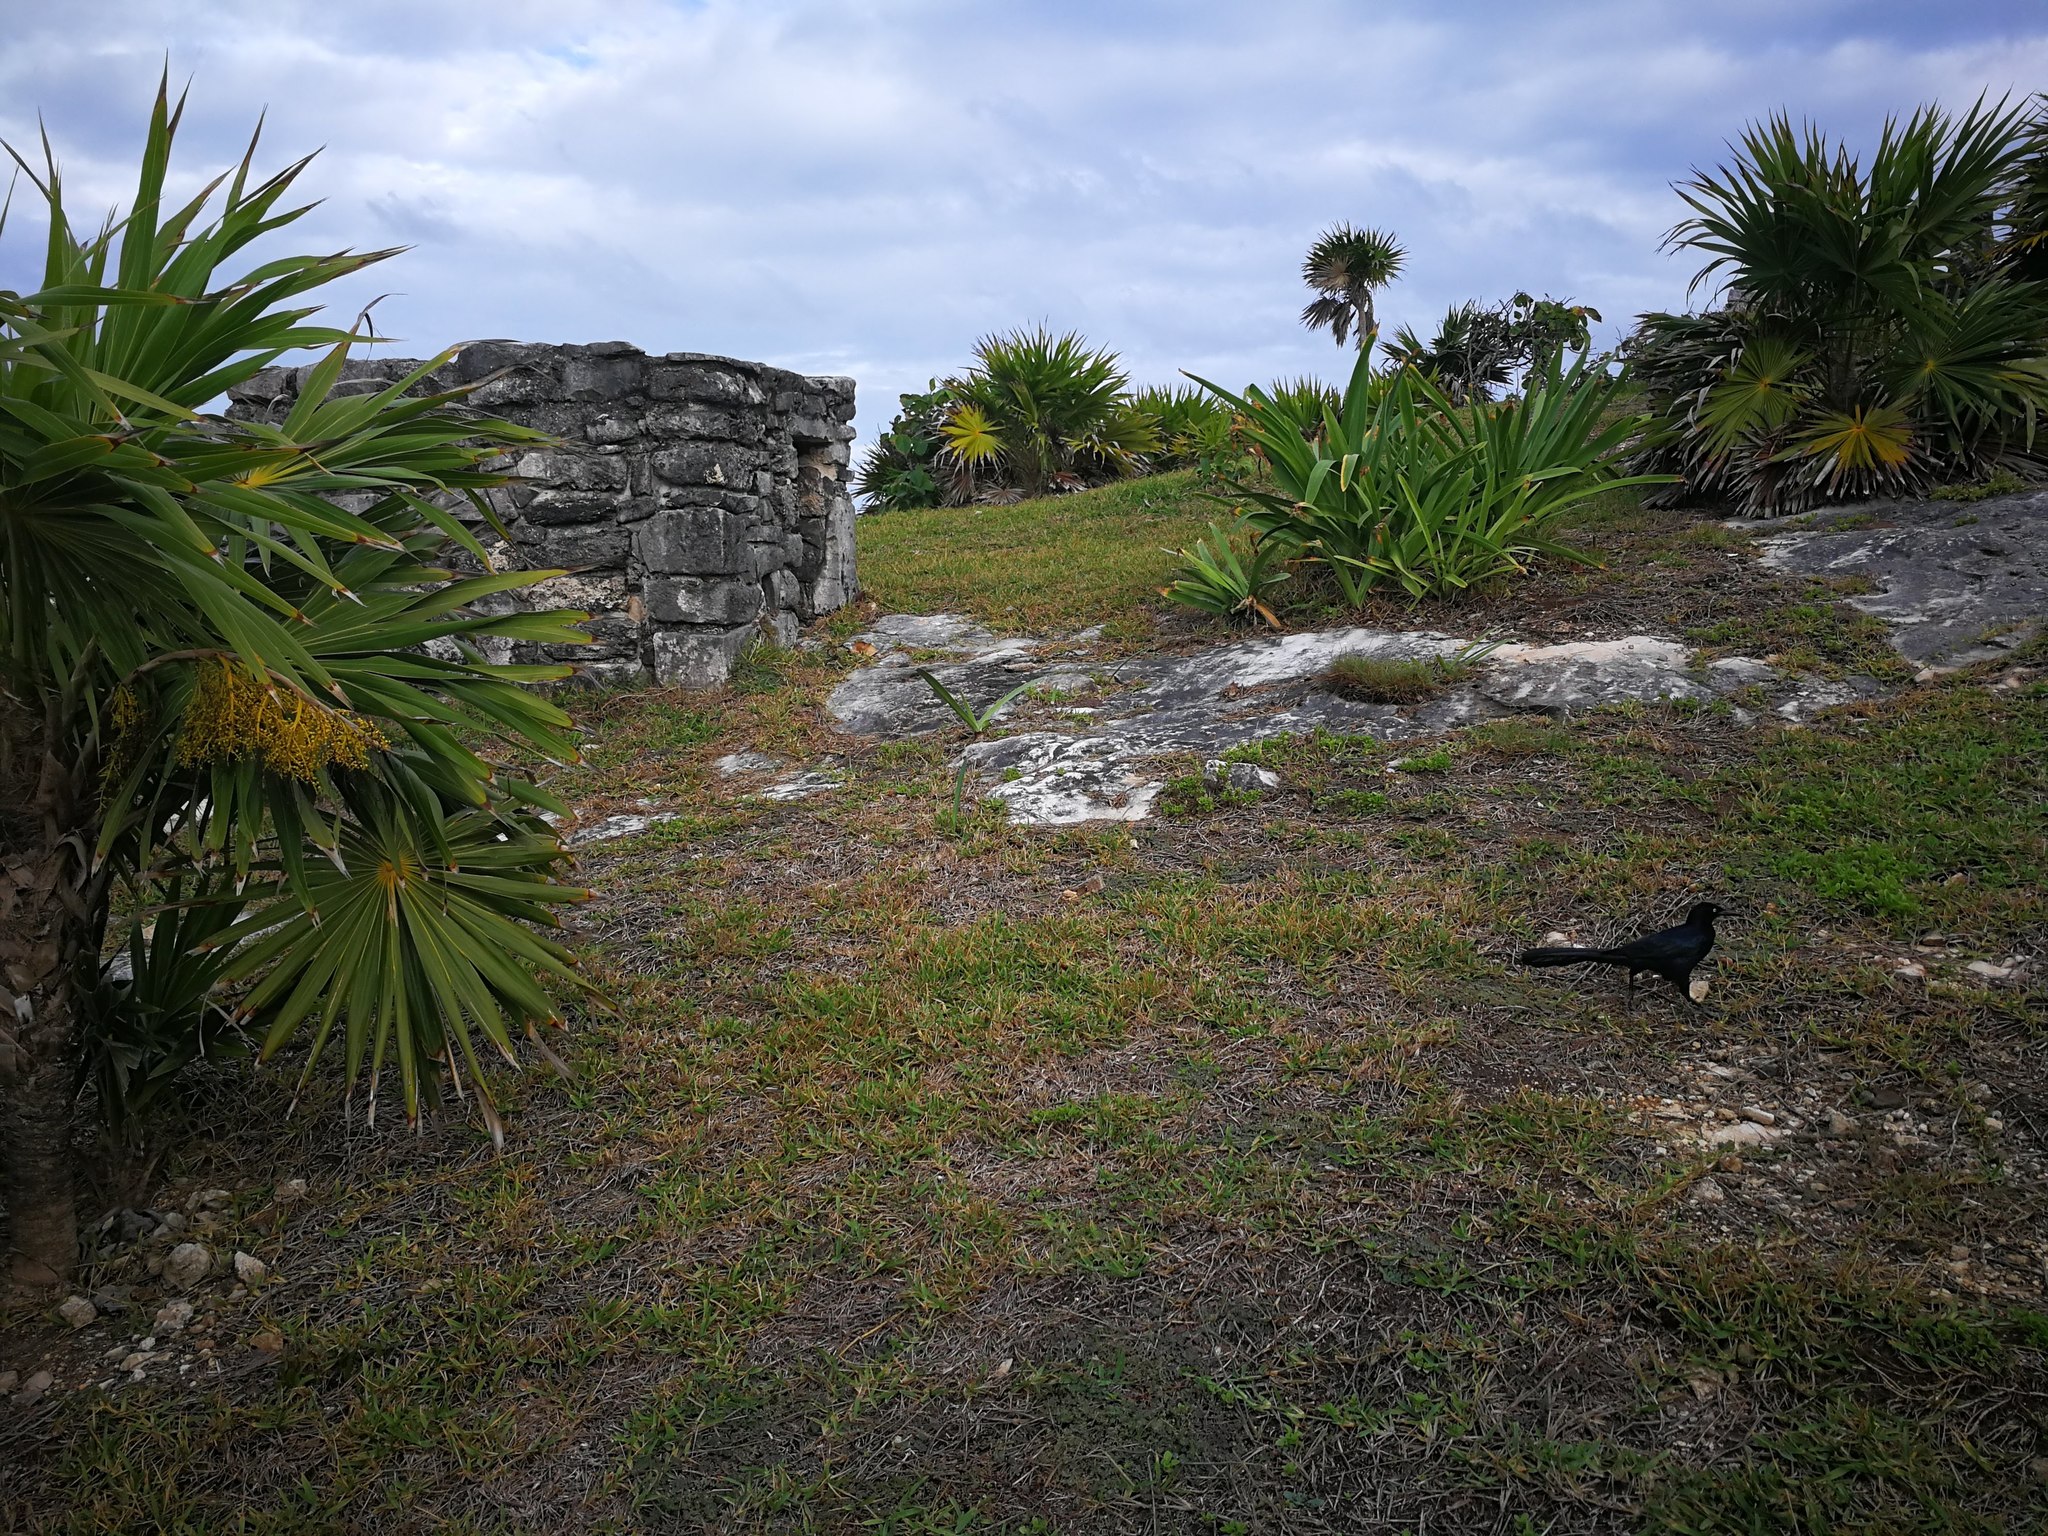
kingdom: Animalia
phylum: Chordata
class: Aves
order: Passeriformes
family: Icteridae
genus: Quiscalus
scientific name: Quiscalus mexicanus
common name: Great-tailed grackle
